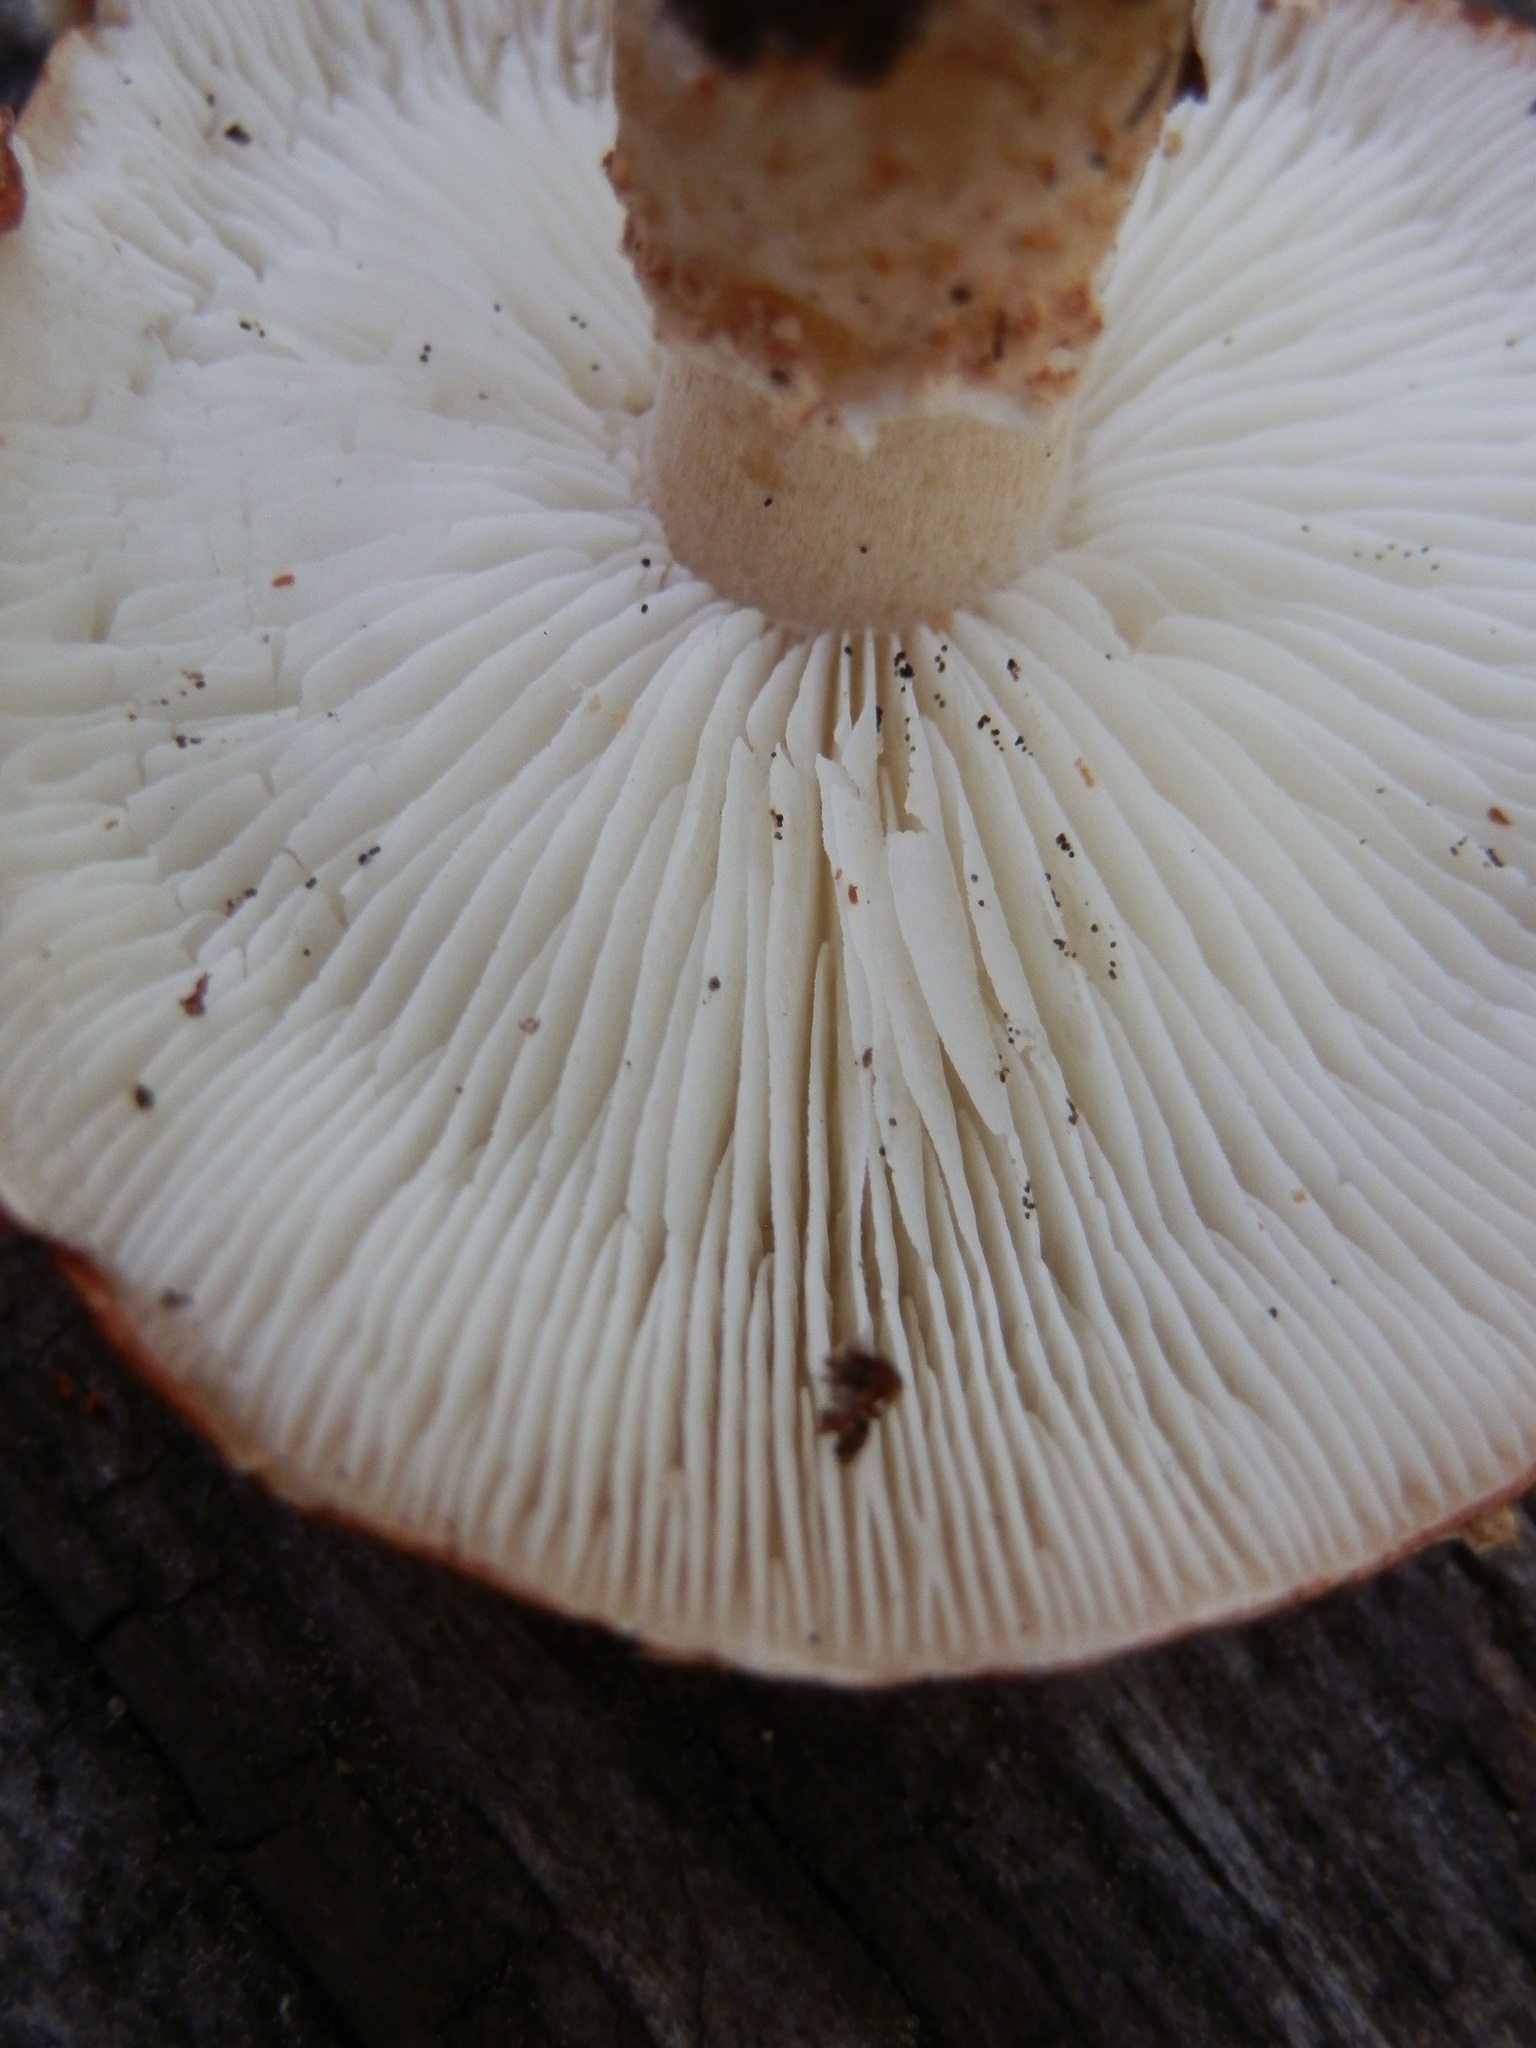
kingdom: Fungi
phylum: Basidiomycota
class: Agaricomycetes
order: Agaricales
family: Agaricaceae
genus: Cystodermella
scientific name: Cystodermella cinnabarina
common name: Cinnabar powdercap
